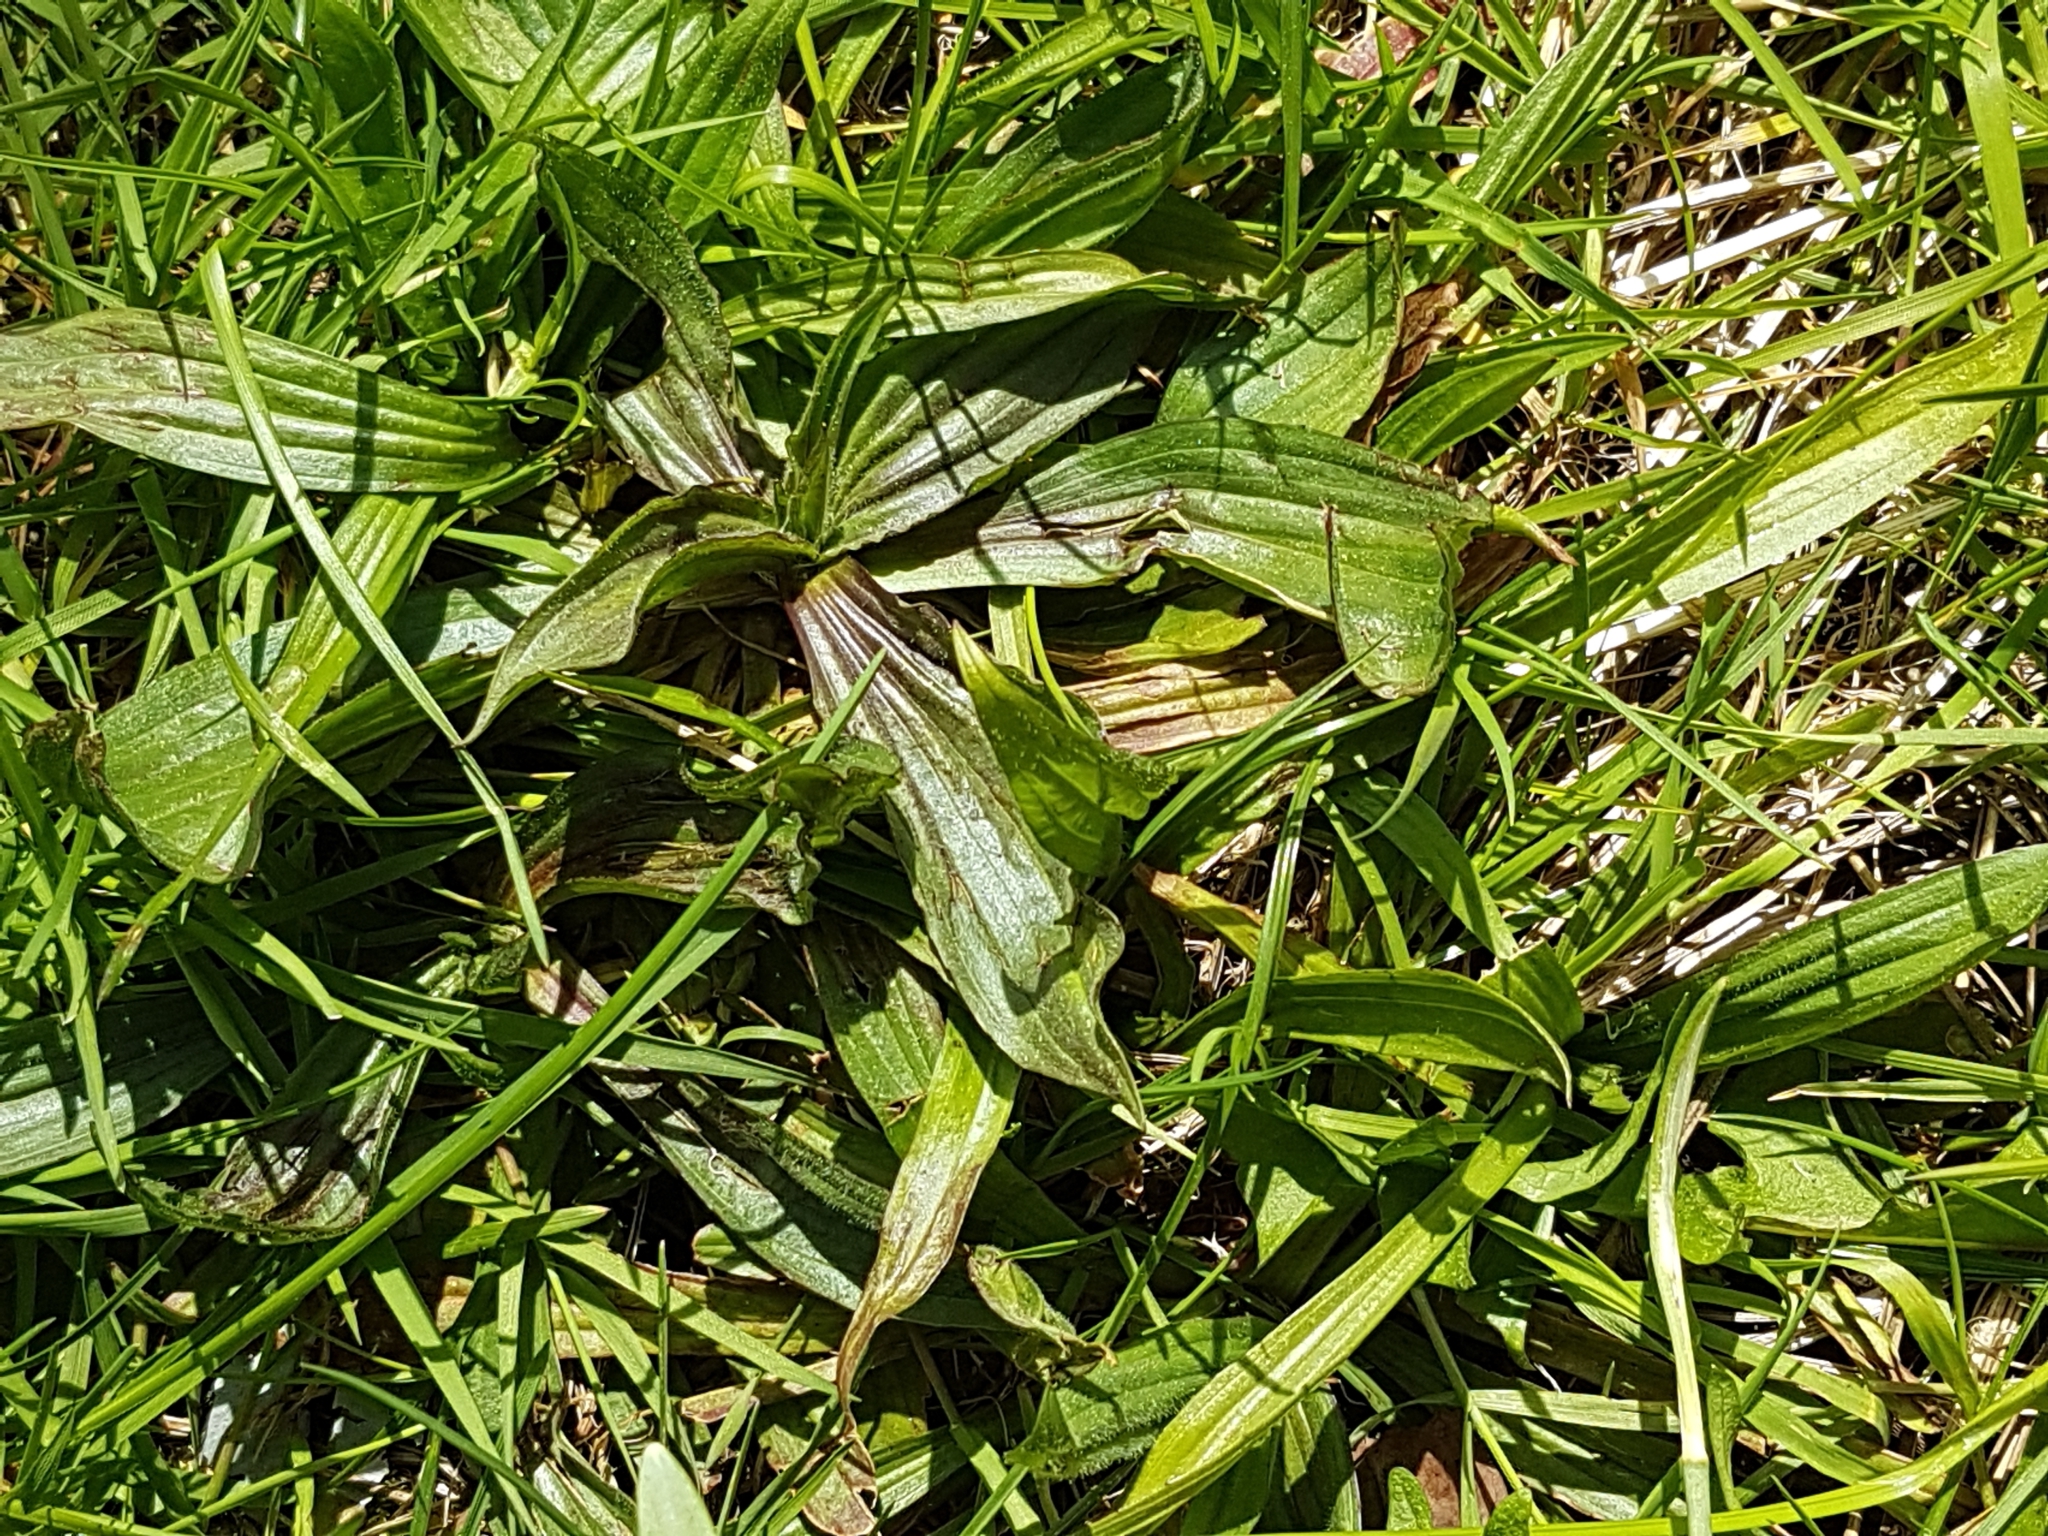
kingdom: Plantae
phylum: Tracheophyta
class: Magnoliopsida
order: Lamiales
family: Plantaginaceae
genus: Plantago
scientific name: Plantago lanceolata
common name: Ribwort plantain
